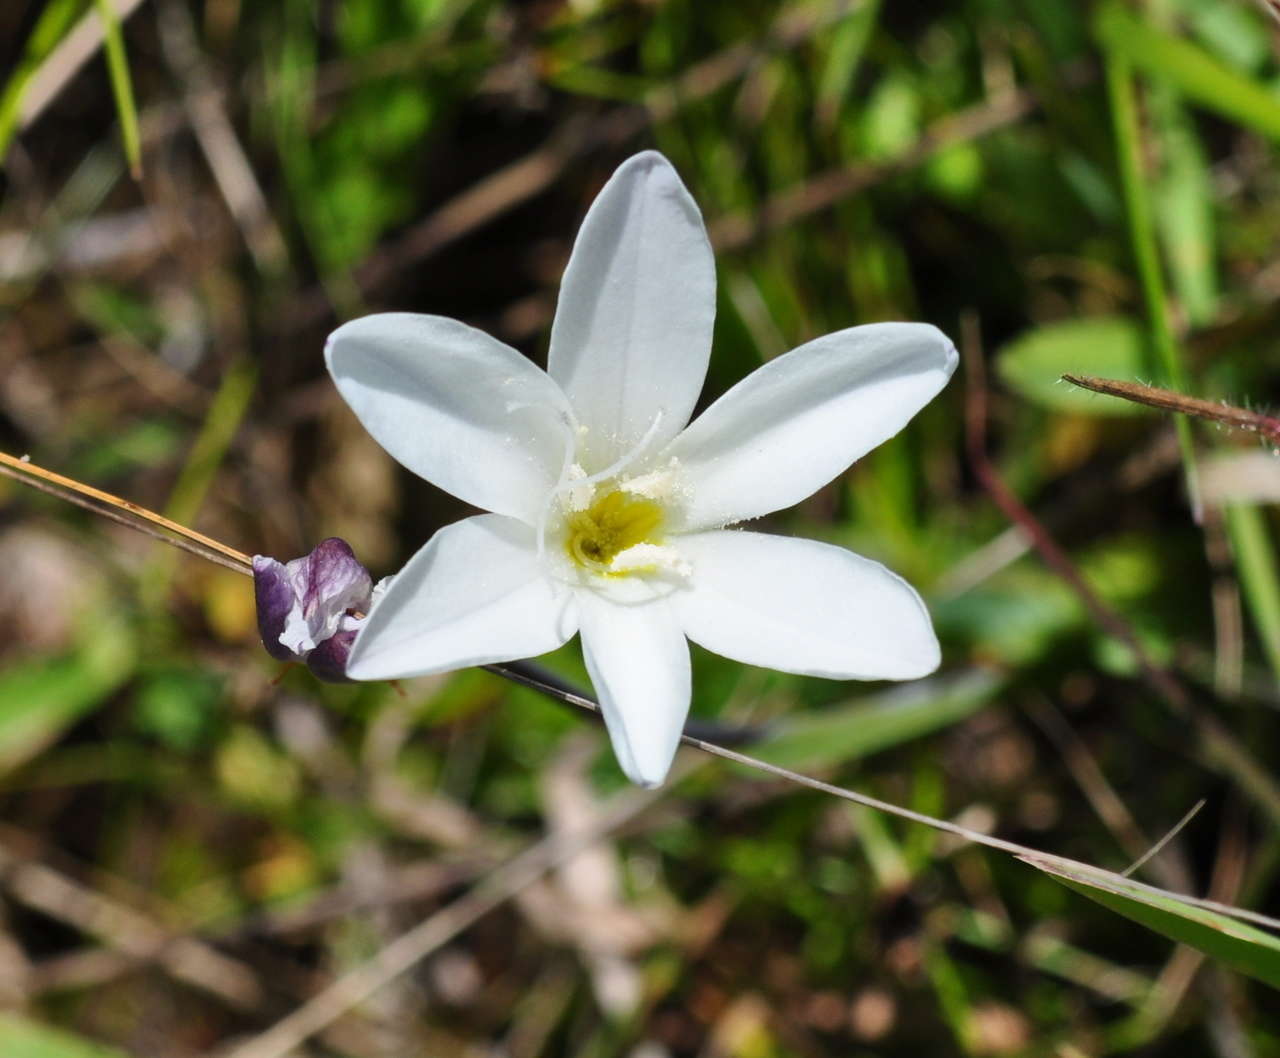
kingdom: Plantae
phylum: Tracheophyta
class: Liliopsida
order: Asparagales
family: Iridaceae
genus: Sparaxis
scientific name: Sparaxis bulbifera
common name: Harlequin-flower
